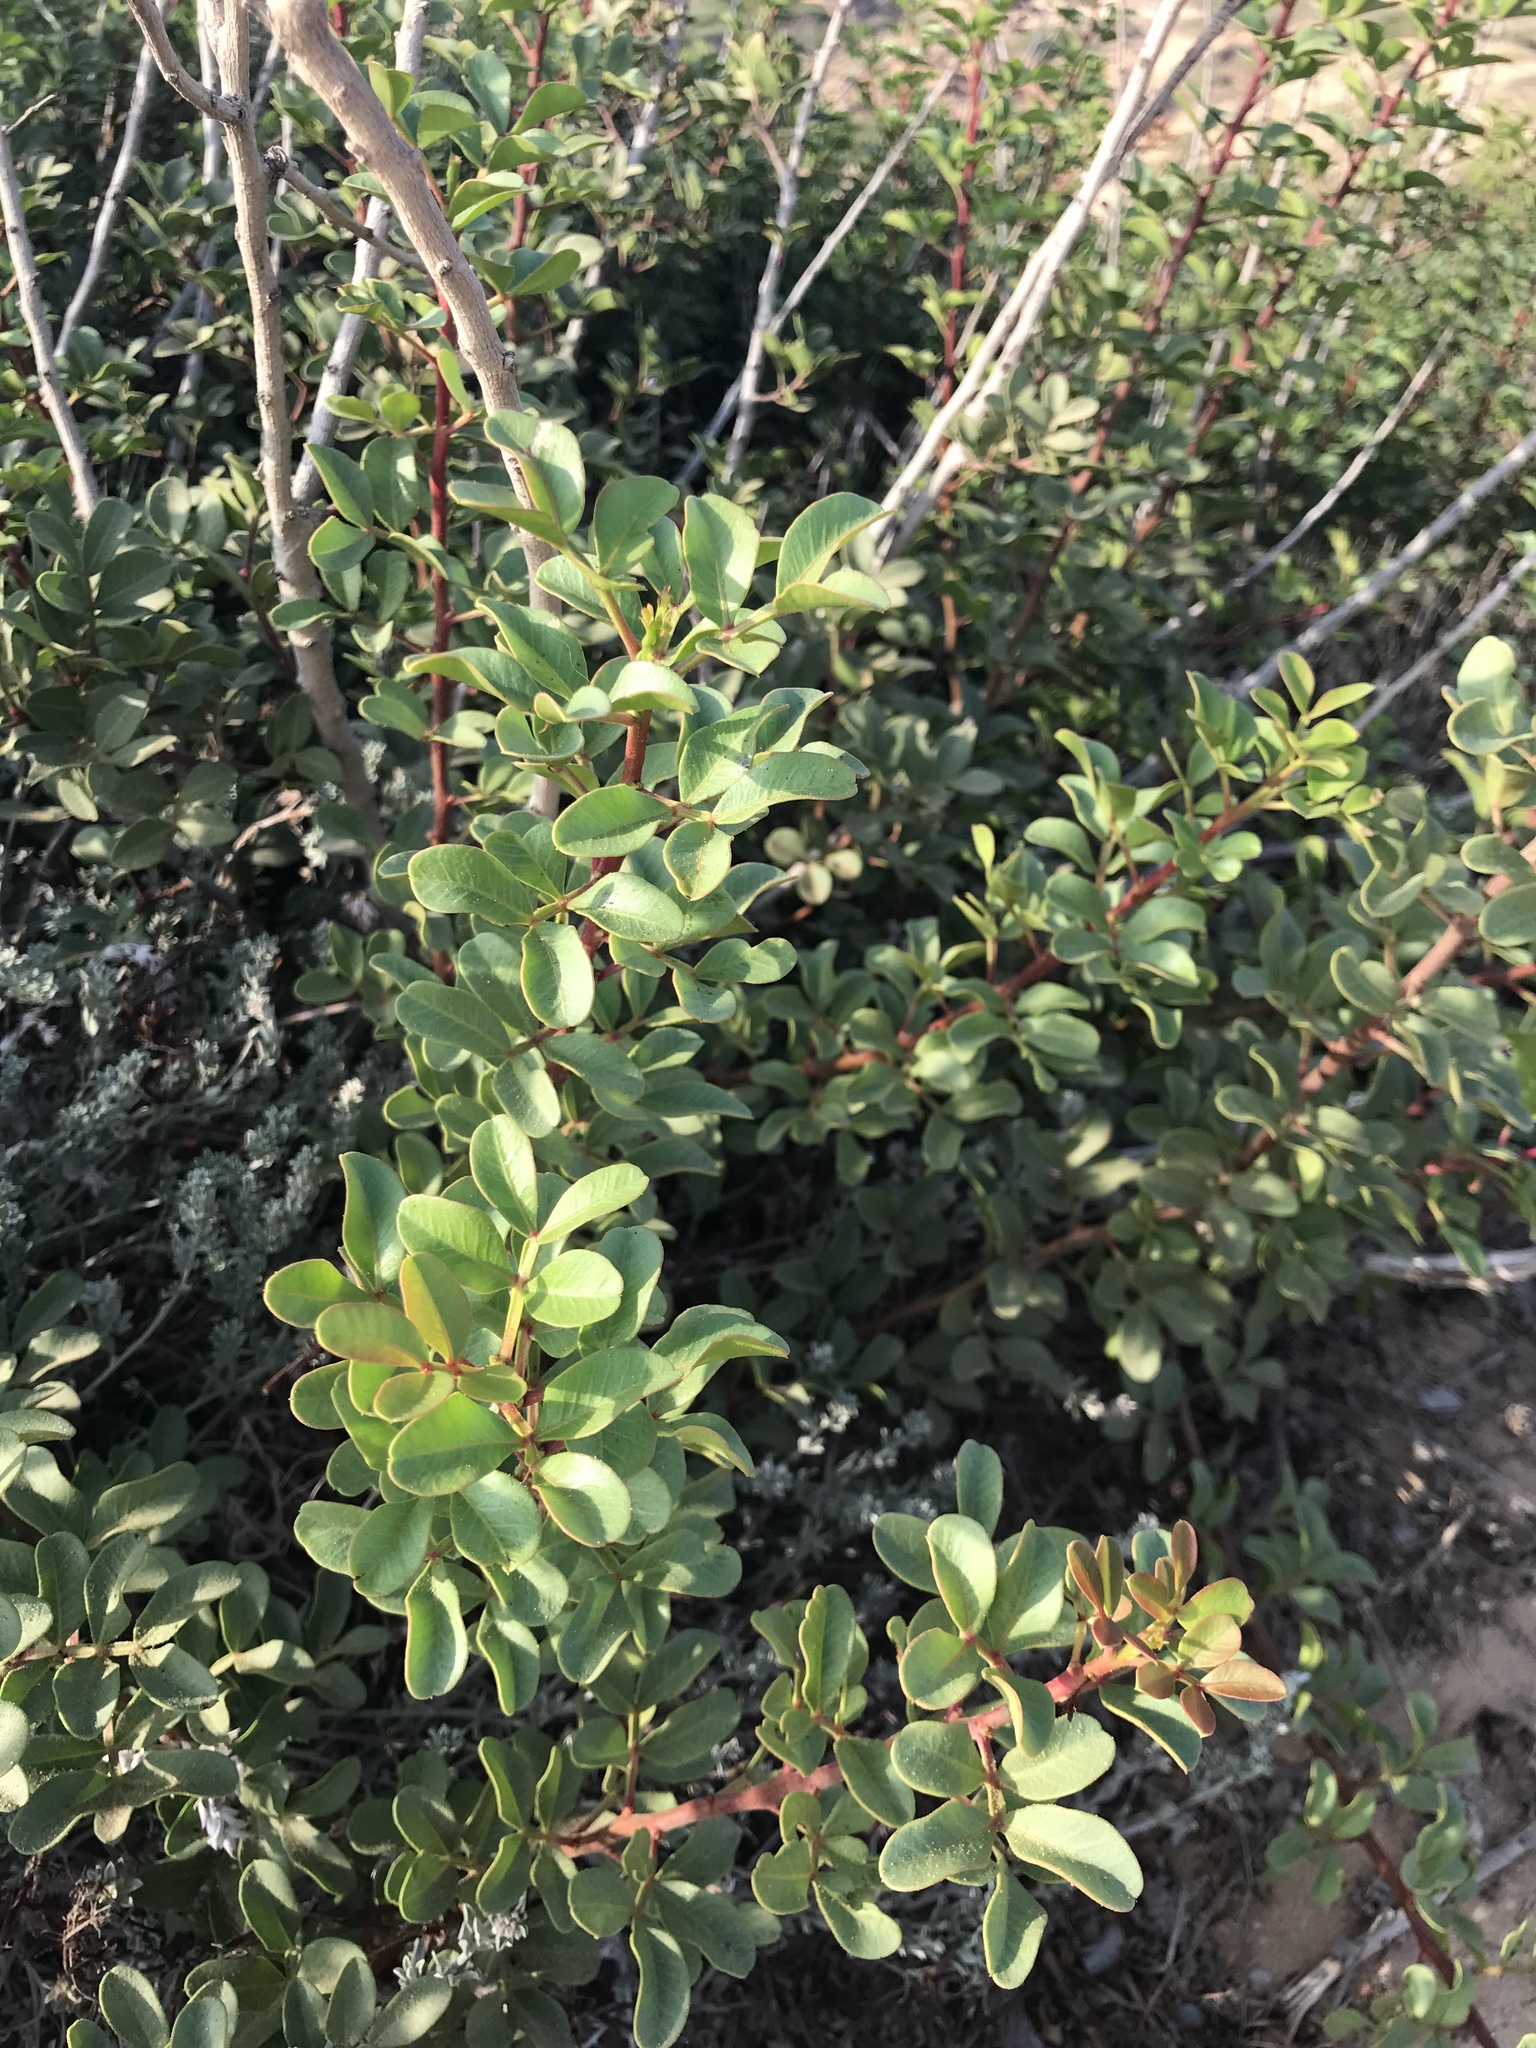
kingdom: Plantae
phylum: Tracheophyta
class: Magnoliopsida
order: Sapindales
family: Anacardiaceae
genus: Pistacia
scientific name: Pistacia lentiscus
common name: Lentisk
